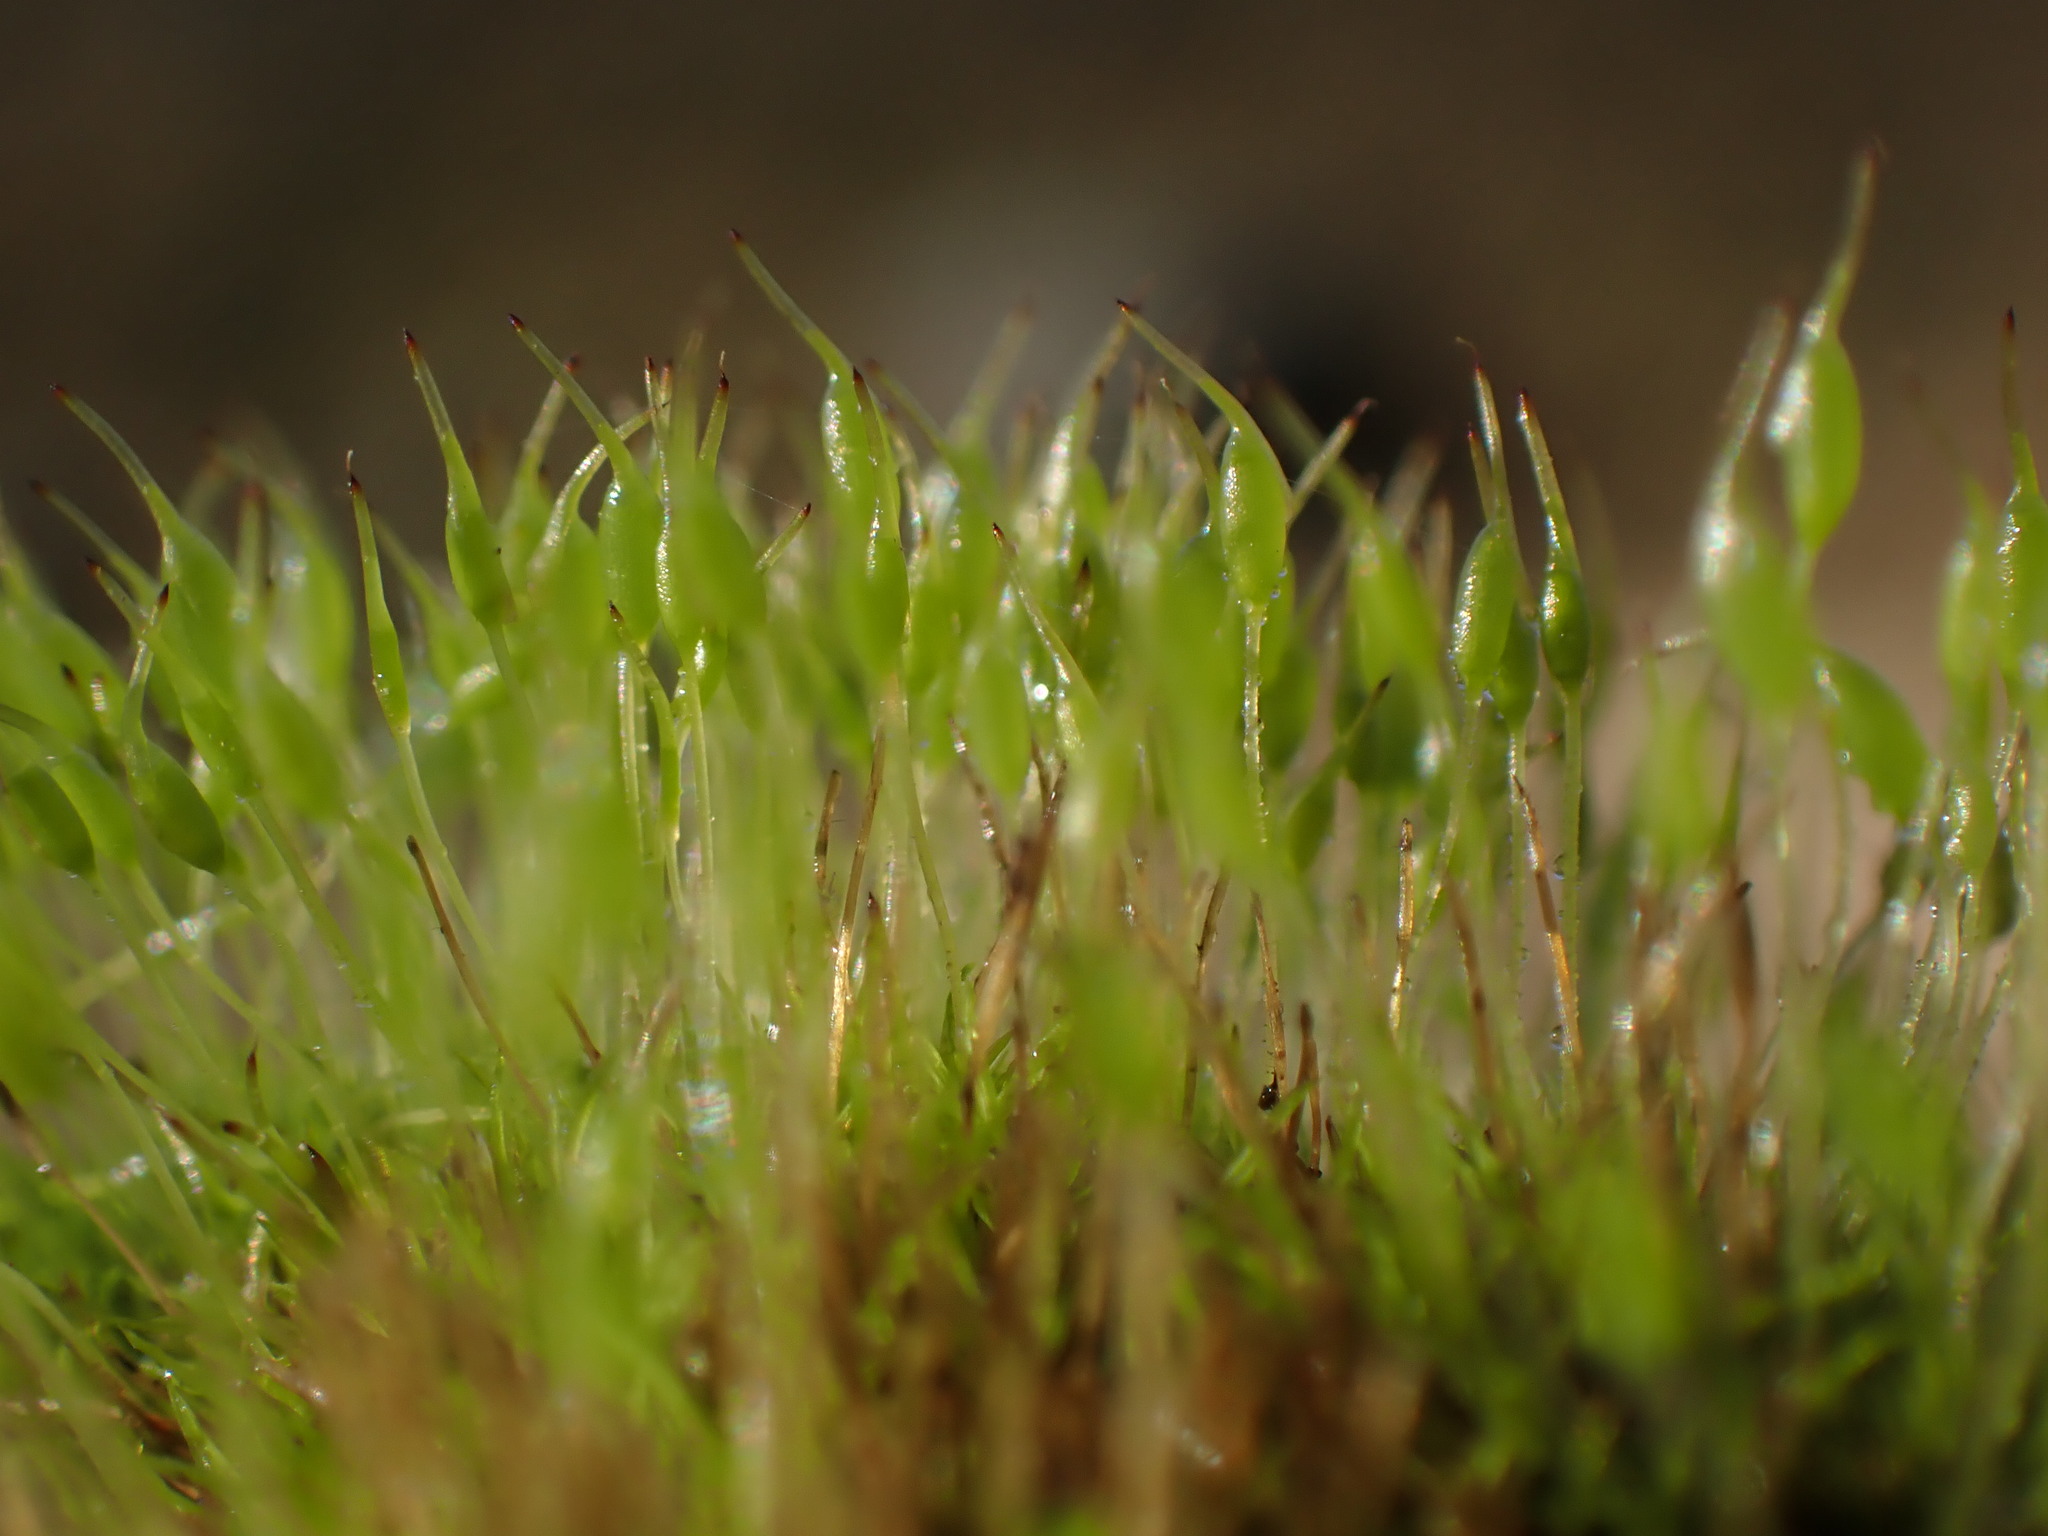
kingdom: Plantae
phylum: Bryophyta
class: Bryopsida
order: Pottiales
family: Pottiaceae
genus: Weissia
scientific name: Weissia controversa
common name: Green-tufted stubble moss
